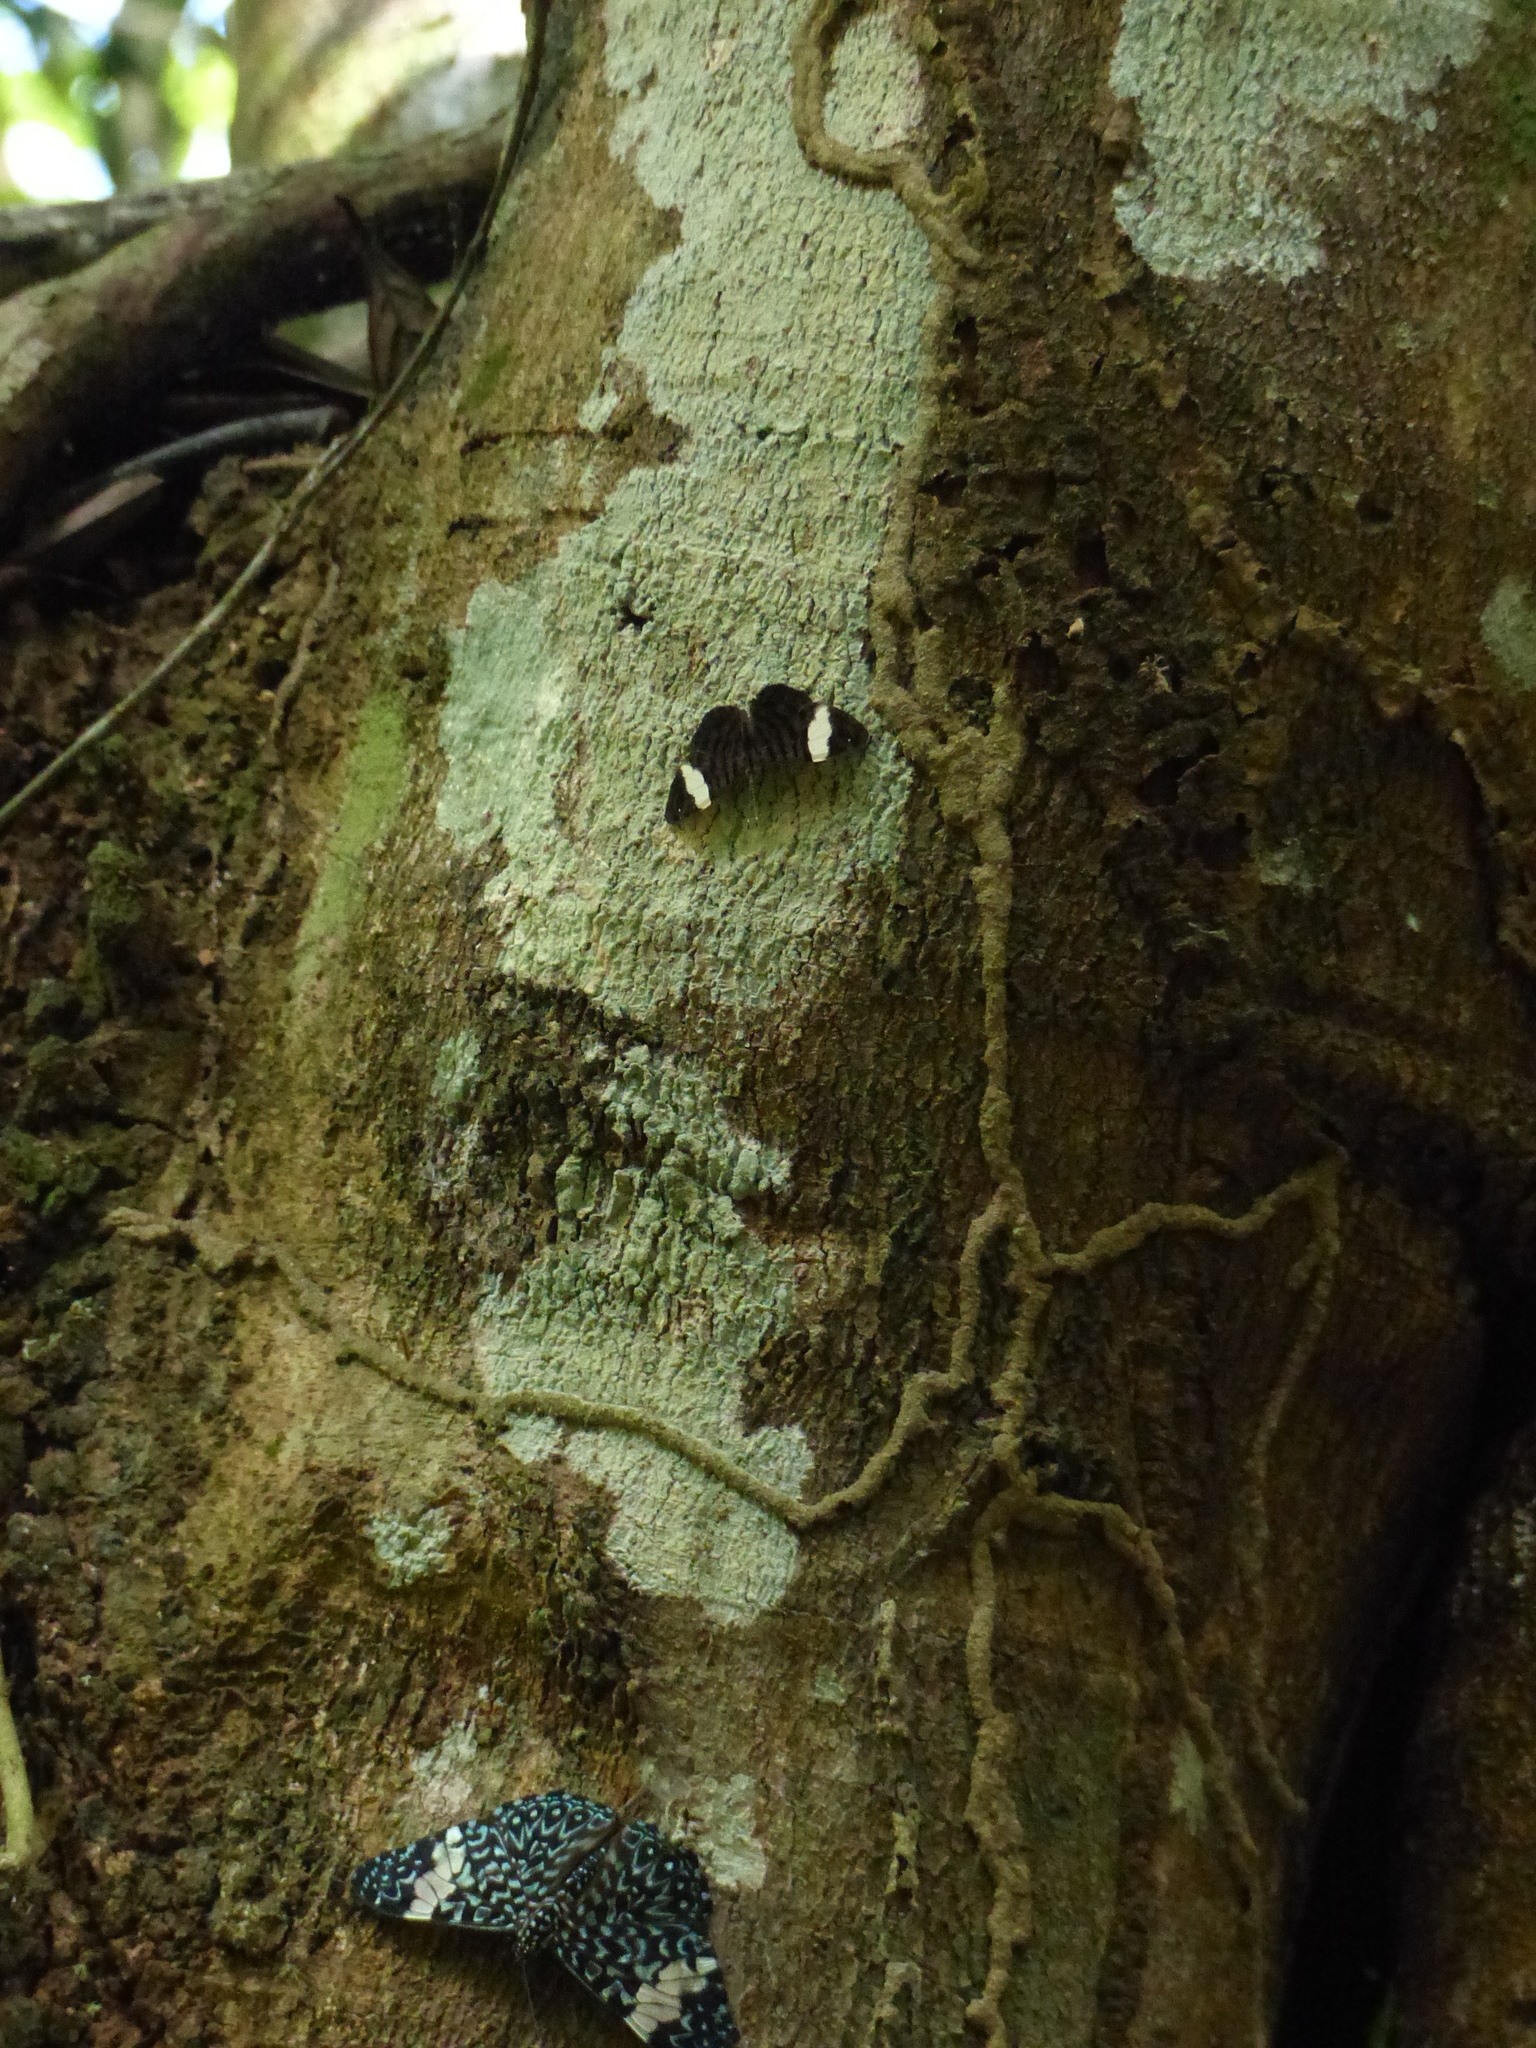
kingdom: Animalia
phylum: Arthropoda
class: Insecta
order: Lepidoptera
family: Nymphalidae
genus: Ectima
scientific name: Ectima thecla
